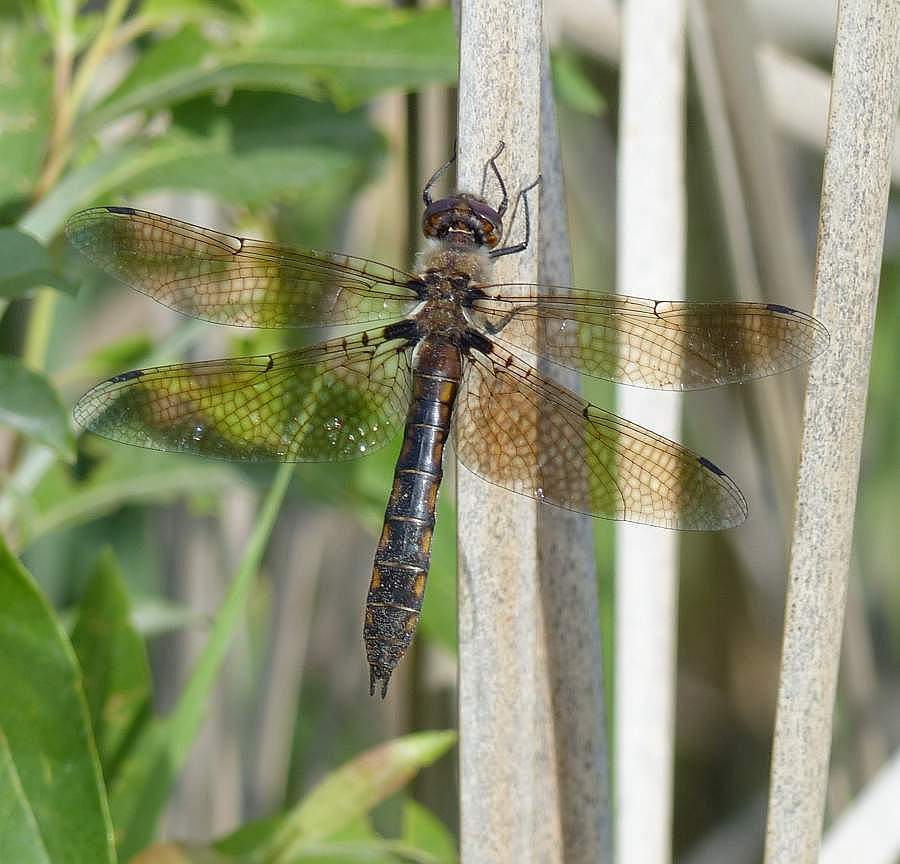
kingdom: Animalia
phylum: Arthropoda
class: Insecta
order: Odonata
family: Corduliidae
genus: Epitheca
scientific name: Epitheca canis
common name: Beaverpond baskettail
